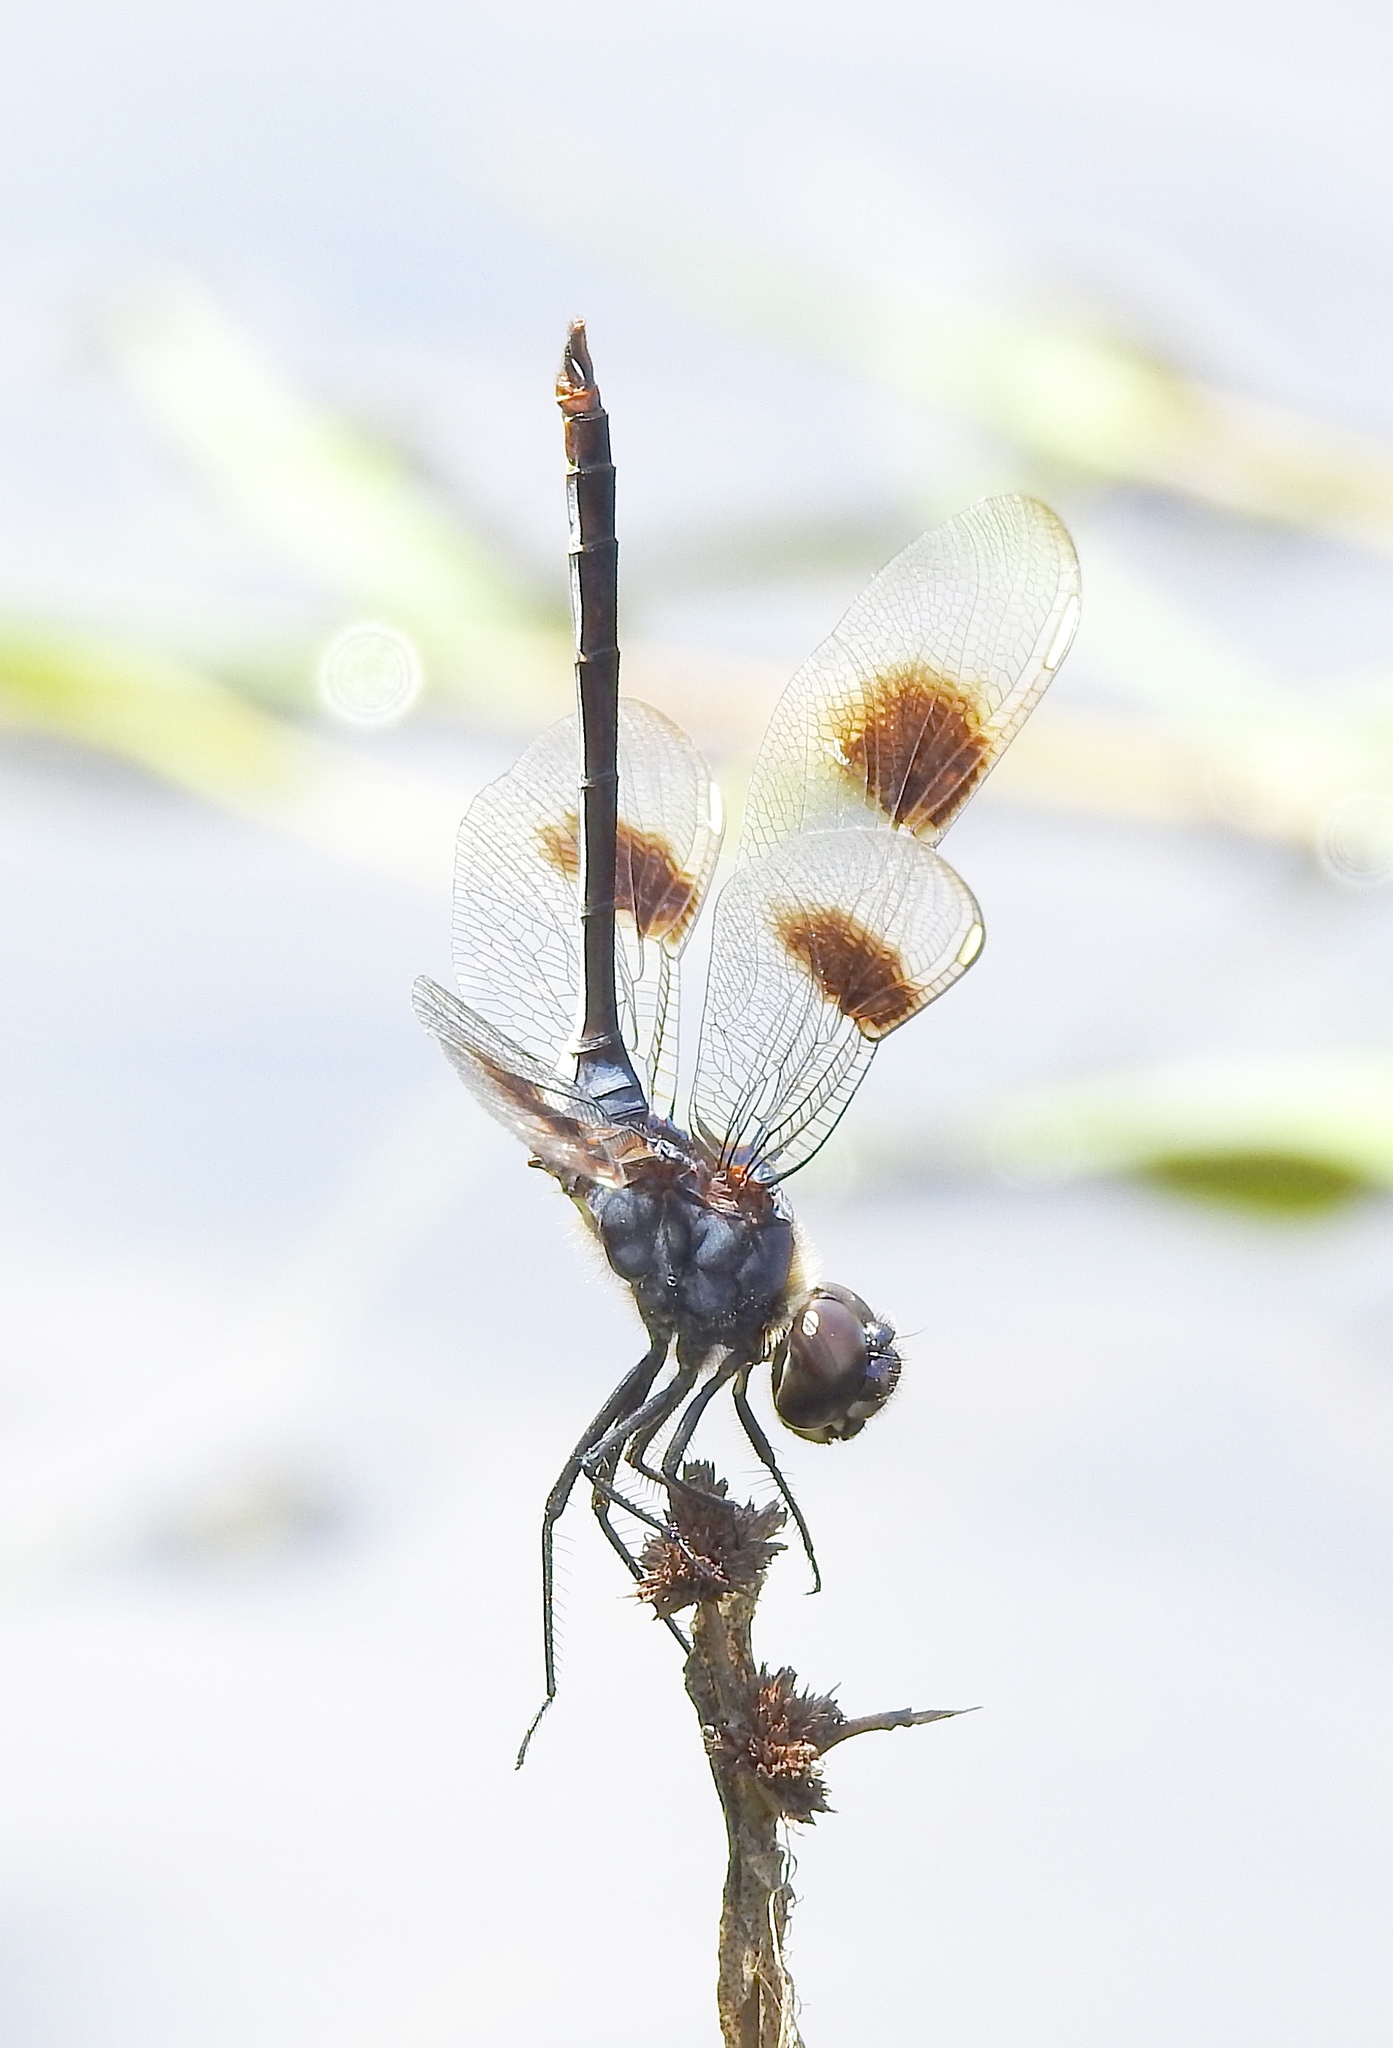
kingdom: Animalia
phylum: Arthropoda
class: Insecta
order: Odonata
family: Libellulidae
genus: Brachymesia
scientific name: Brachymesia gravida
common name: Four-spotted pennant
